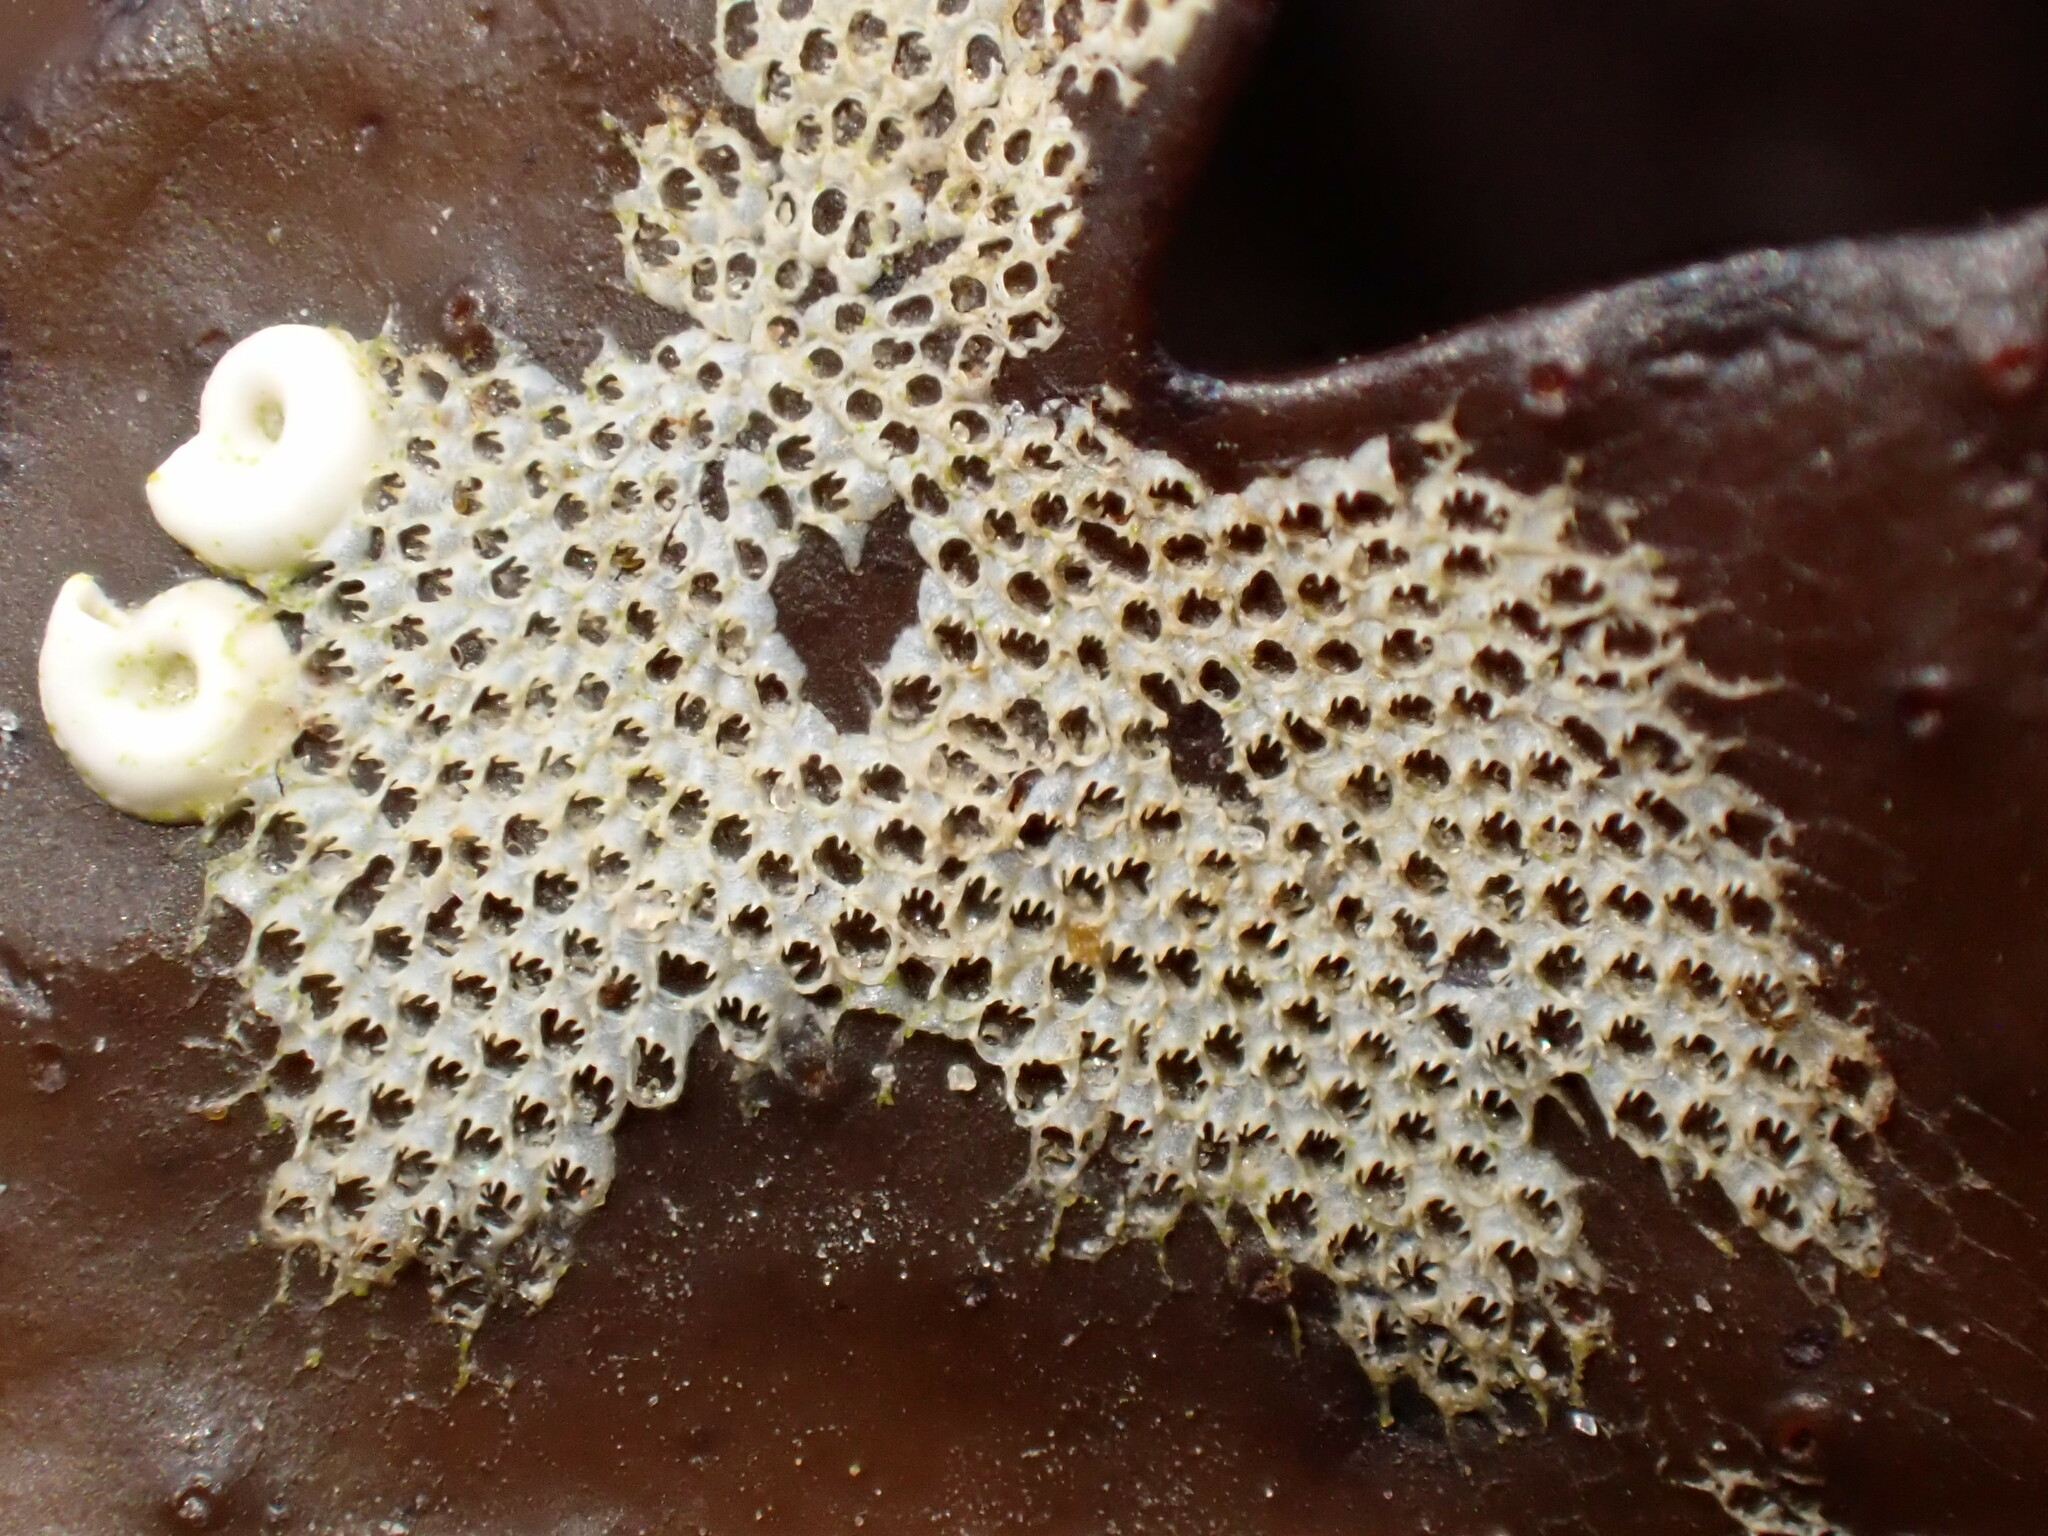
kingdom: Animalia
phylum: Bryozoa
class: Gymnolaemata
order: Cheilostomatida
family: Electridae
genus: Electra
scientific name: Electra pilosa
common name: Hairy sea-mat
